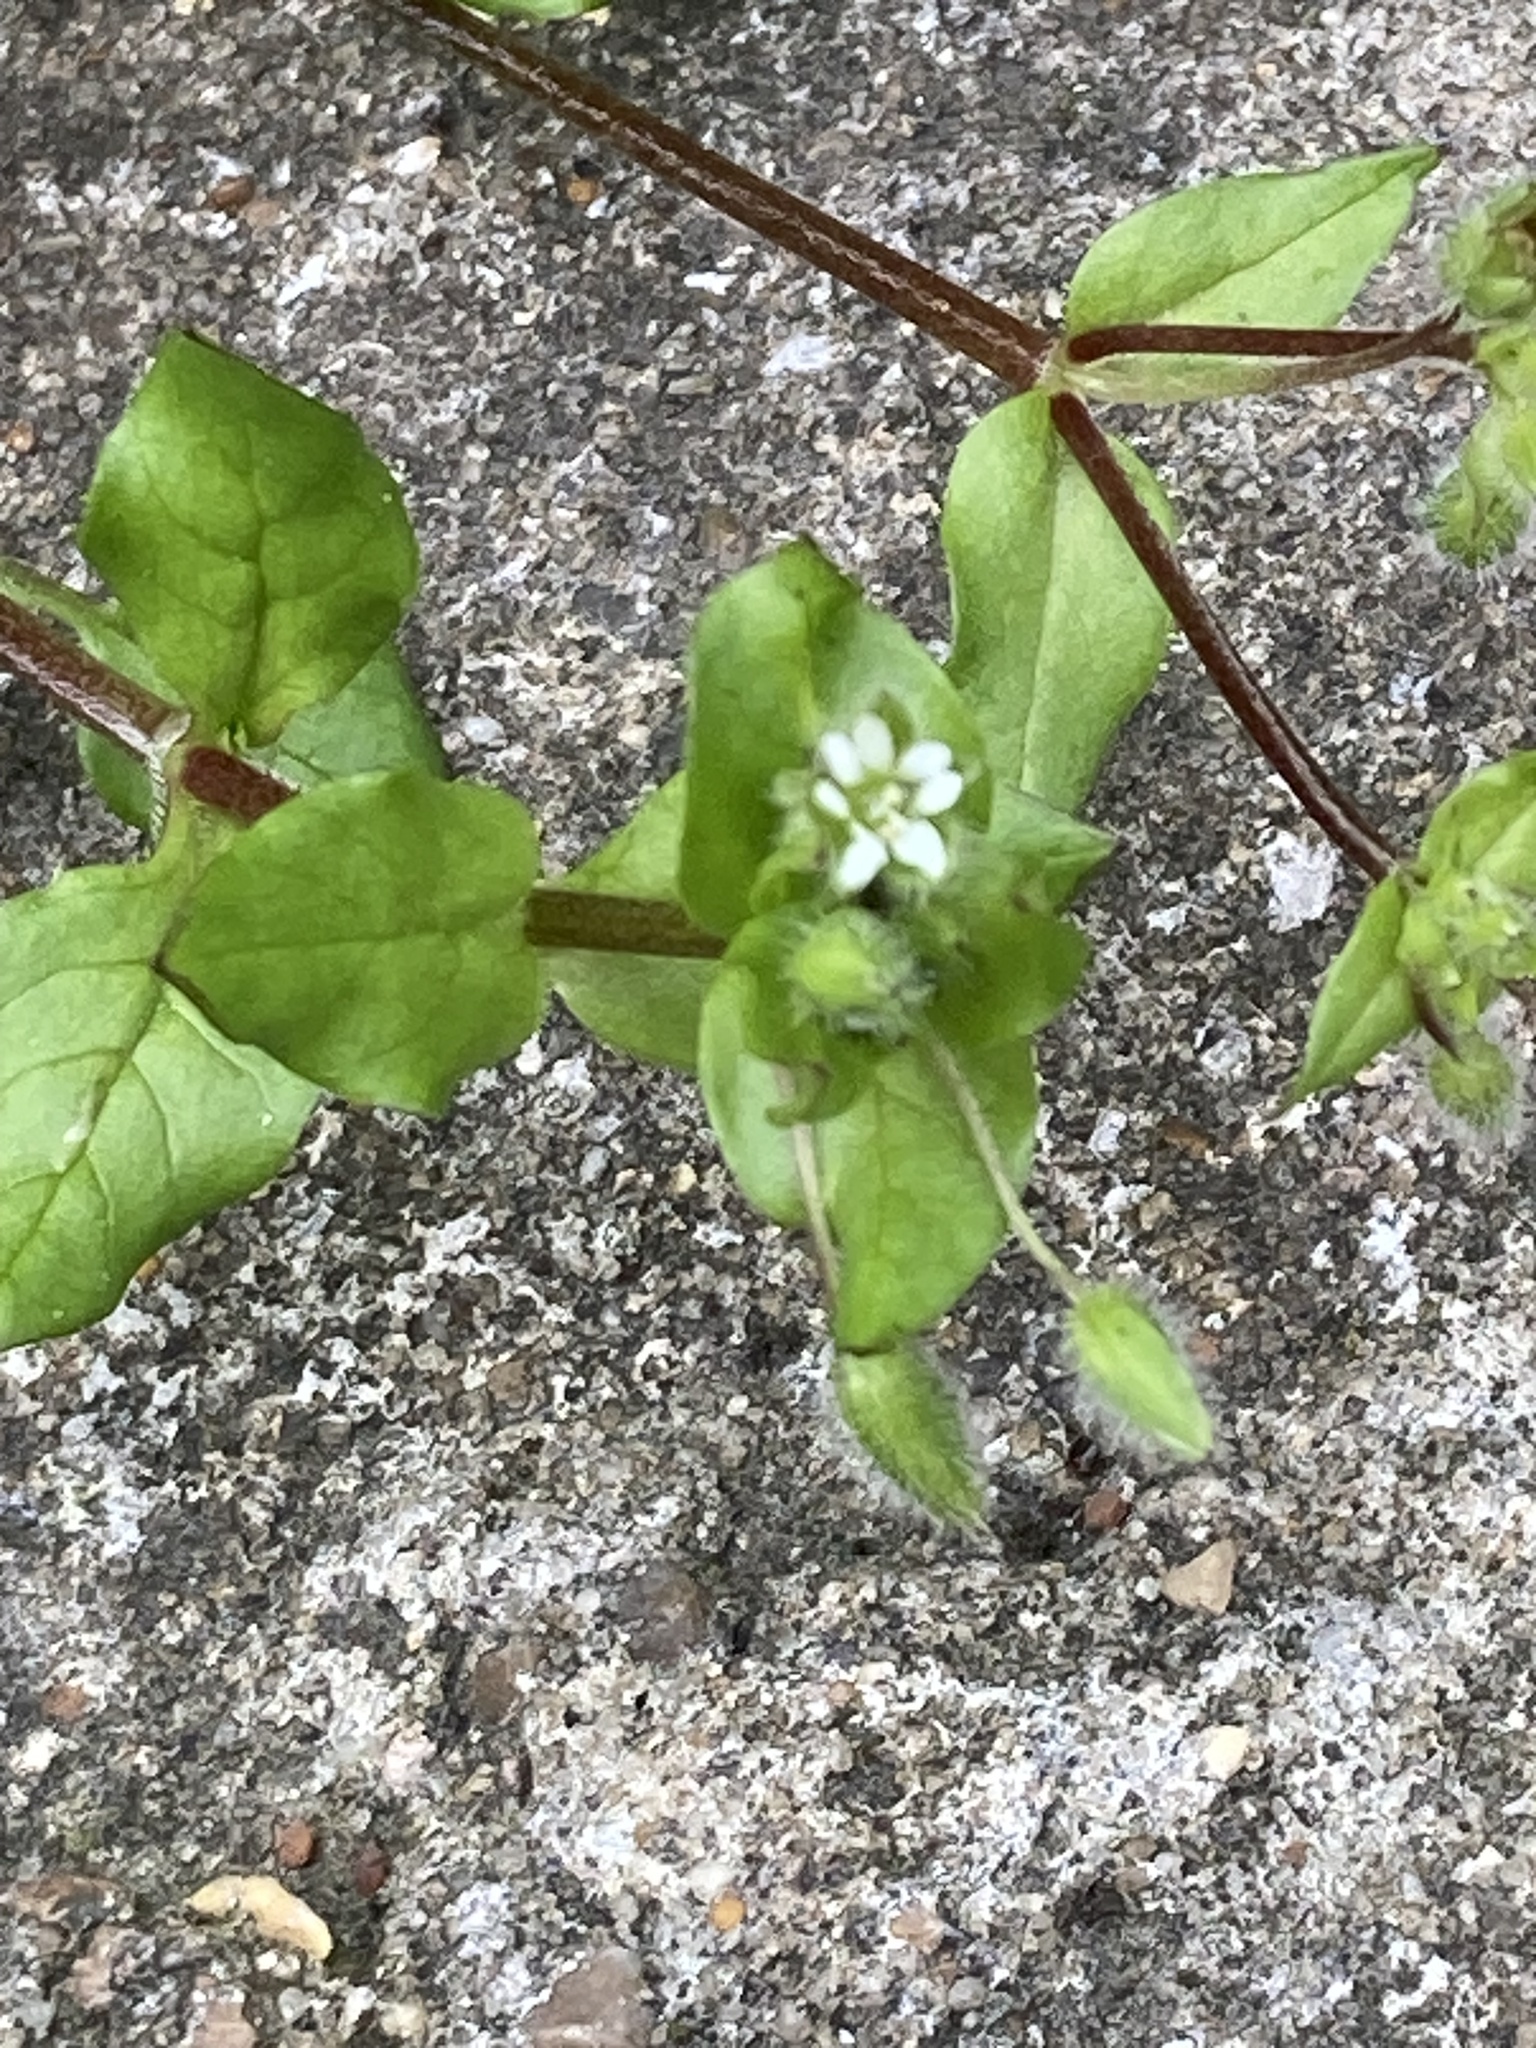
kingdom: Plantae
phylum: Tracheophyta
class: Magnoliopsida
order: Caryophyllales
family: Caryophyllaceae
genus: Stellaria
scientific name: Stellaria media
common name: Common chickweed
